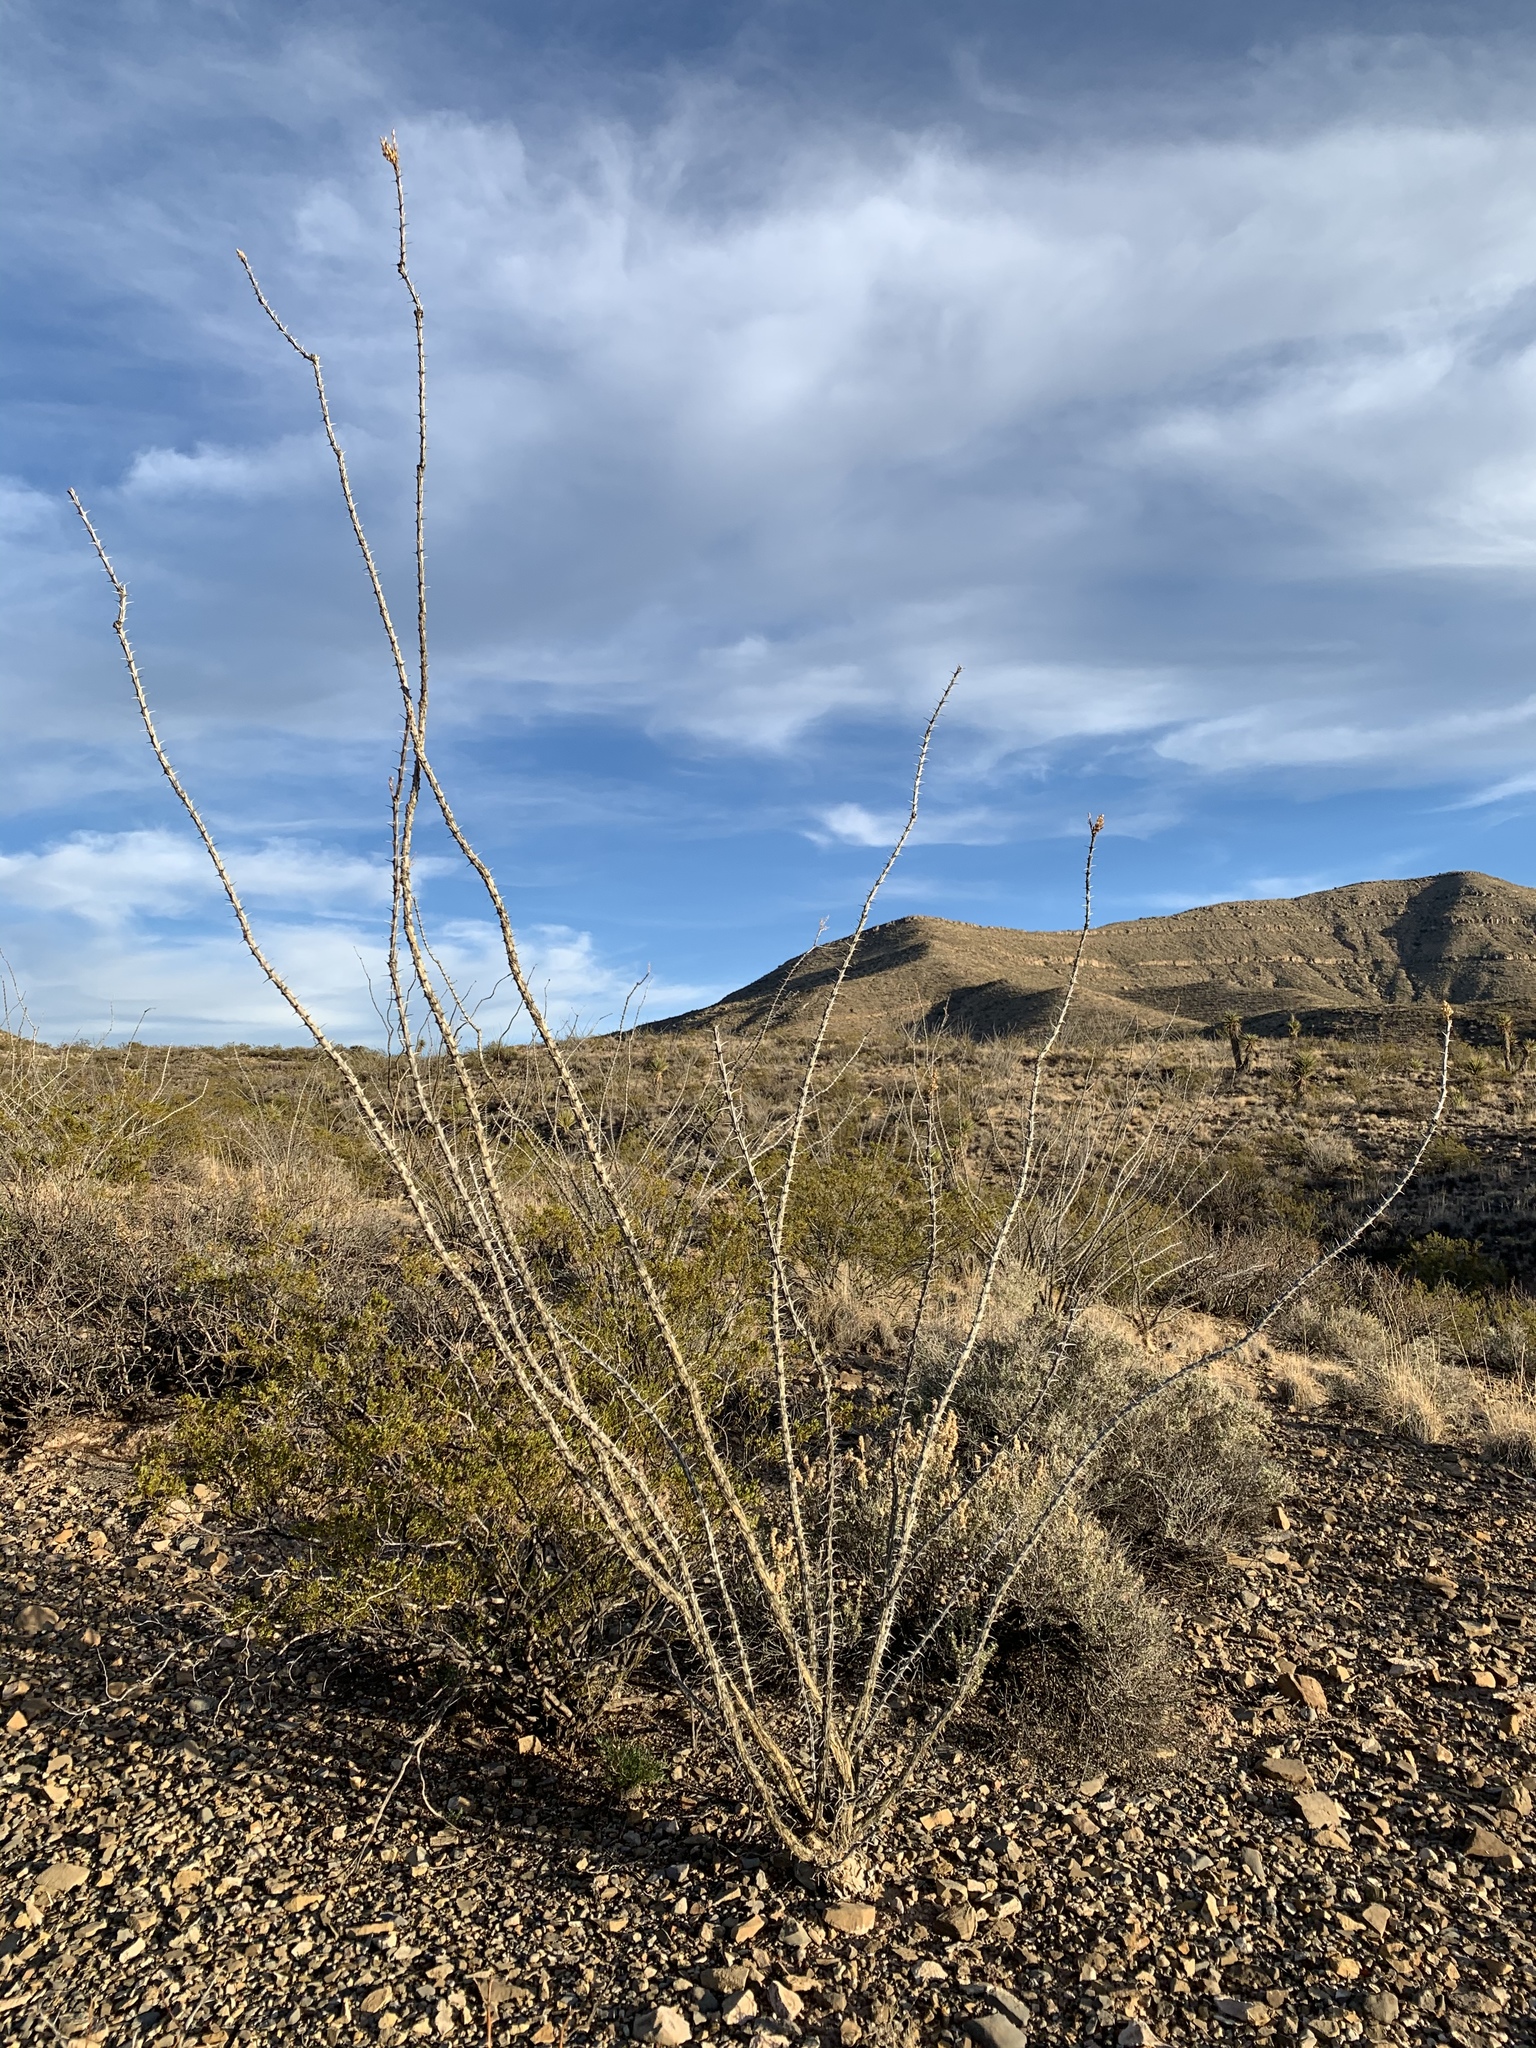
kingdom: Plantae
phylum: Tracheophyta
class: Magnoliopsida
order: Ericales
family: Fouquieriaceae
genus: Fouquieria
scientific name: Fouquieria splendens
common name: Vine-cactus
